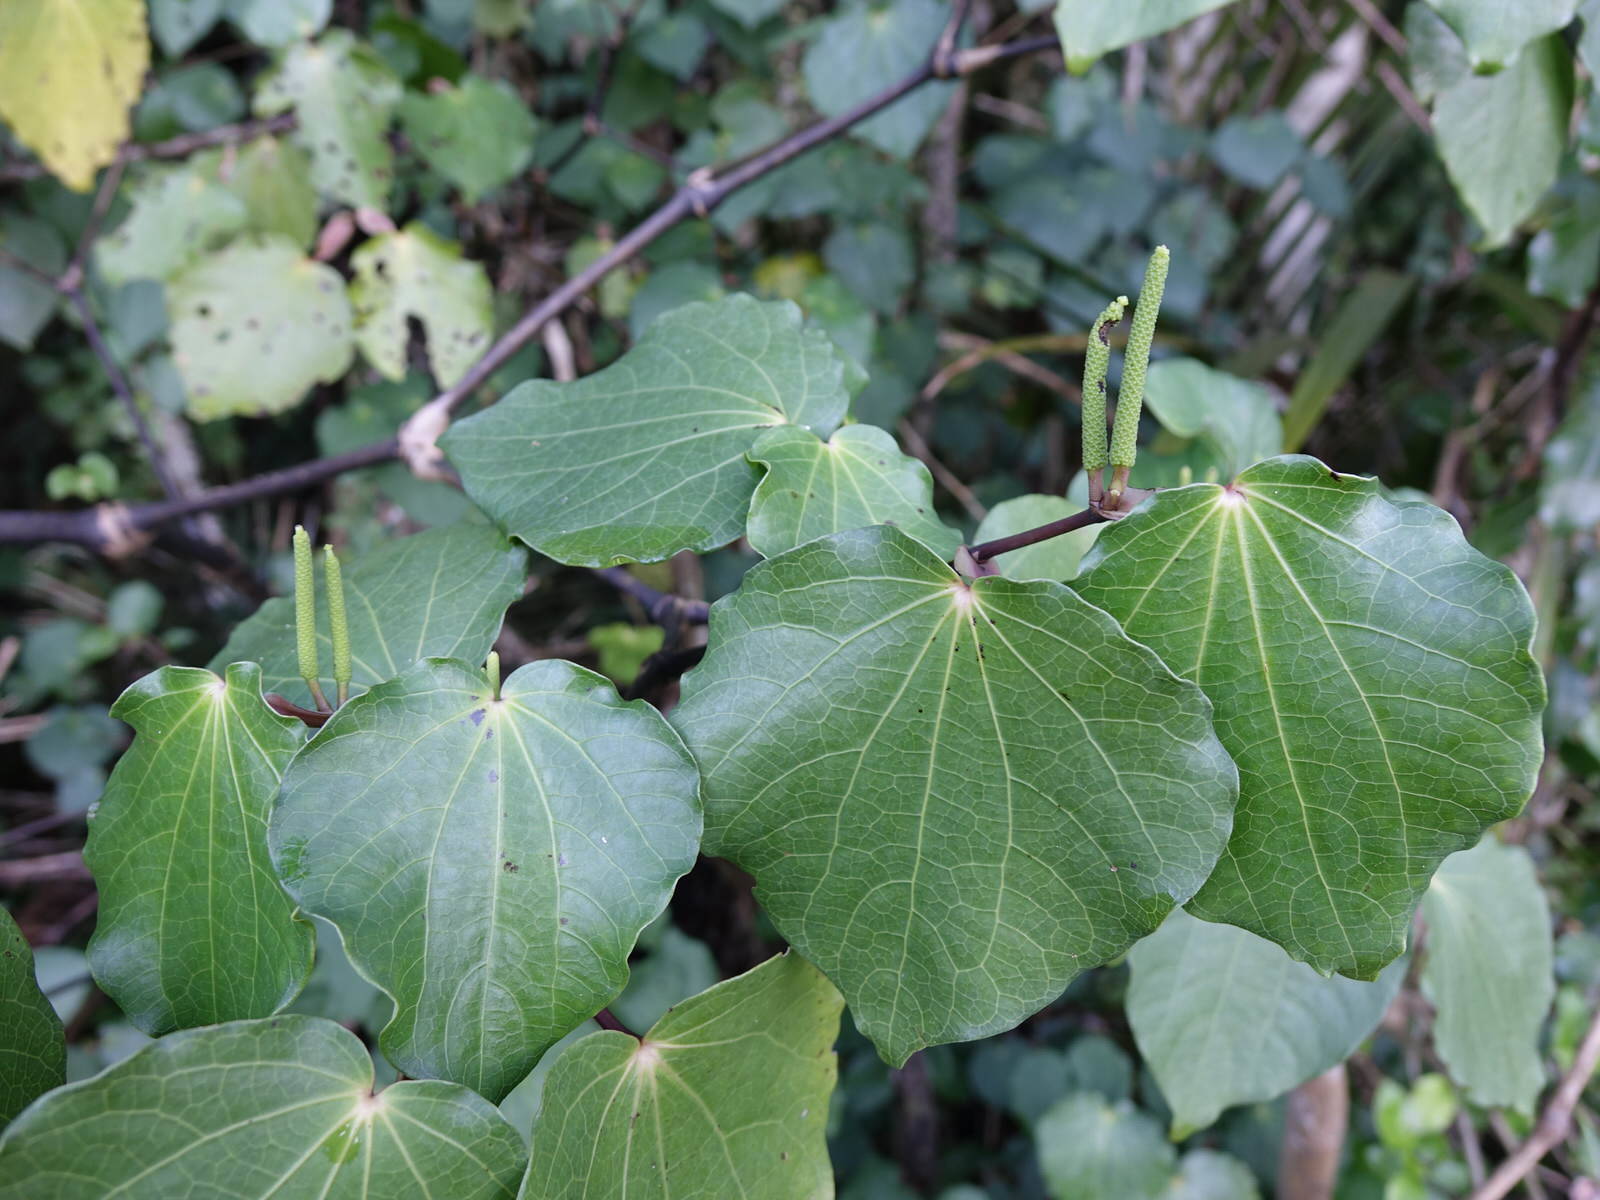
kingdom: Plantae
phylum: Tracheophyta
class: Magnoliopsida
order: Piperales
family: Piperaceae
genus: Macropiper
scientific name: Macropiper excelsum
